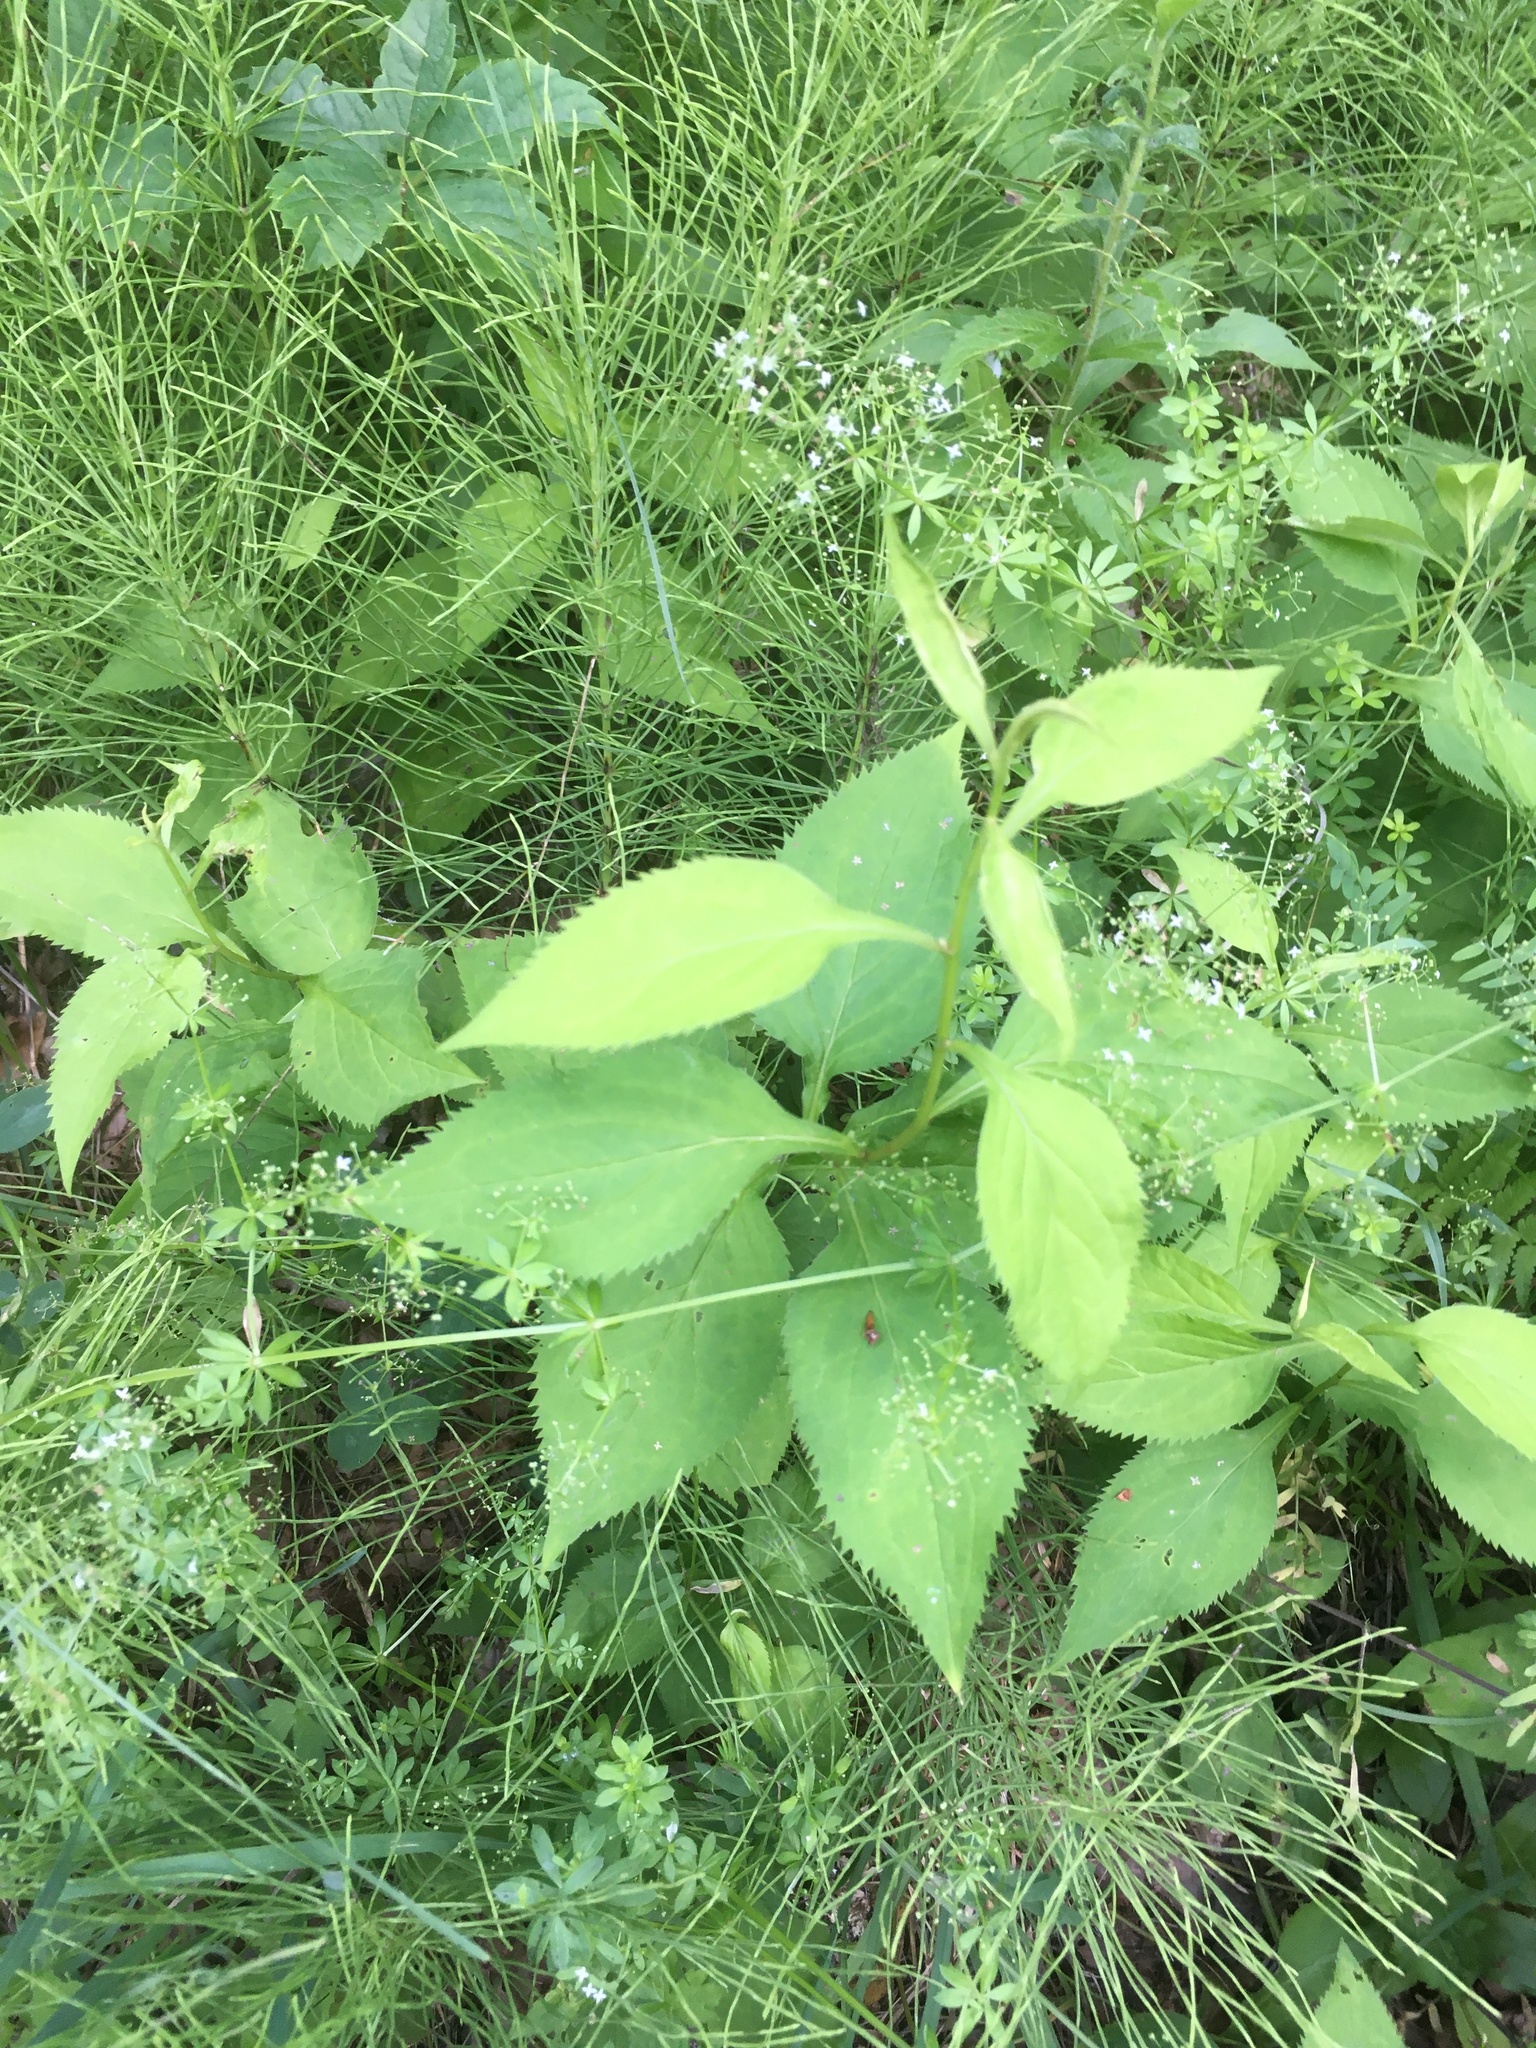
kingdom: Plantae
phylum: Tracheophyta
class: Magnoliopsida
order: Asterales
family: Asteraceae
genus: Solidago
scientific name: Solidago flexicaulis
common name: Zig-zag goldenrod
